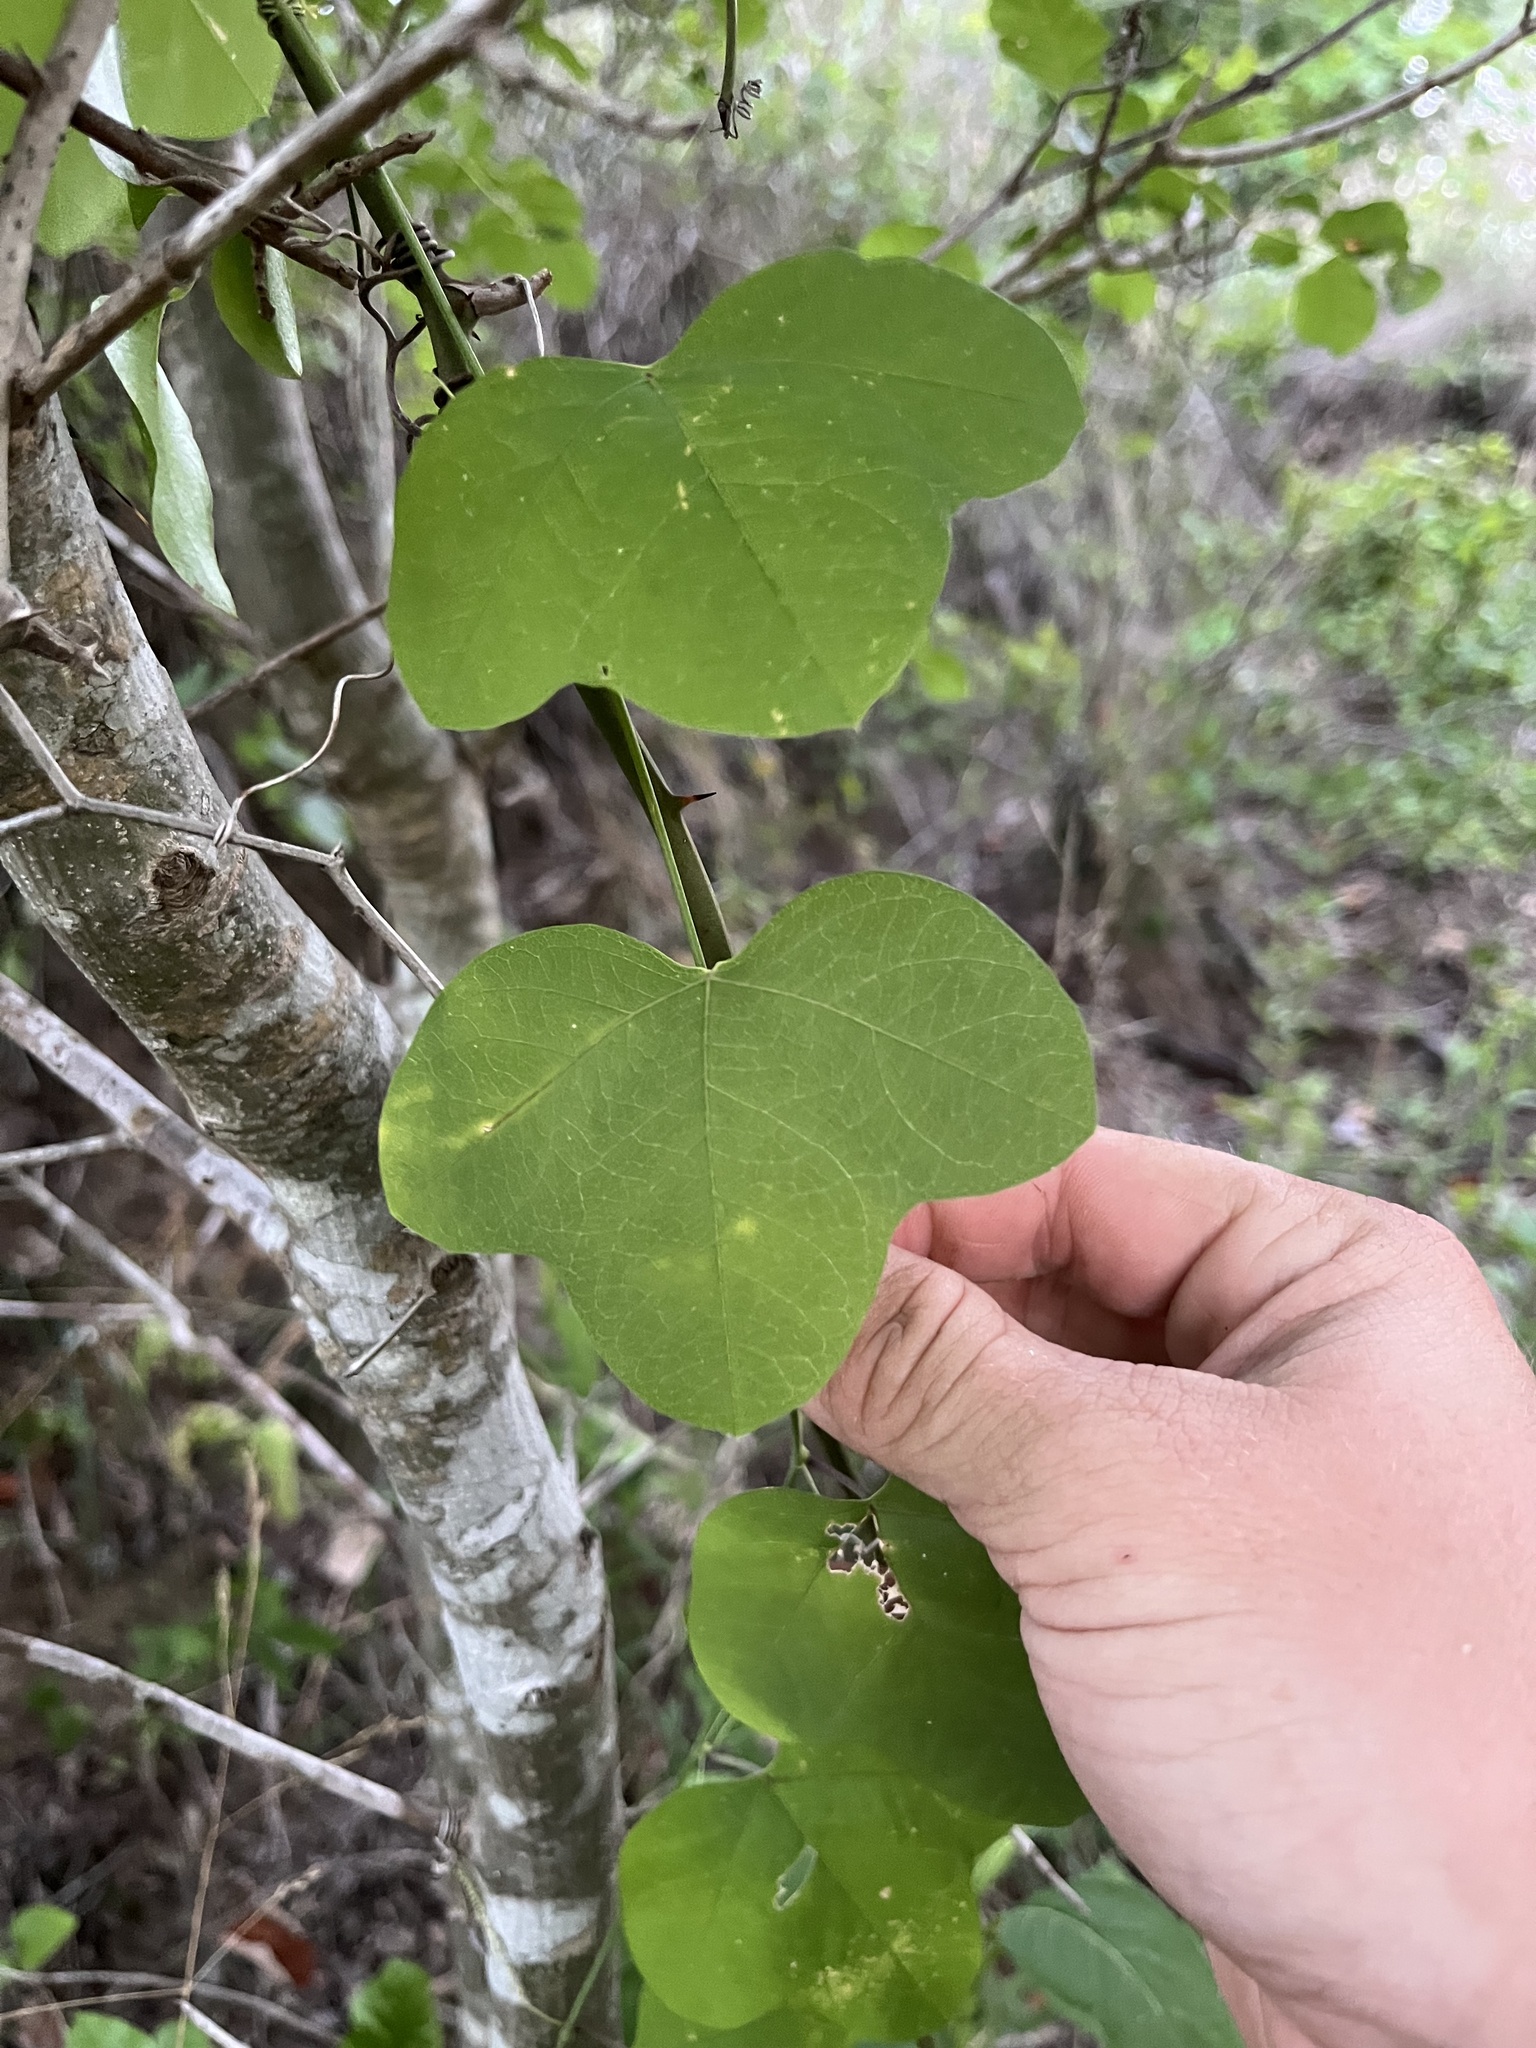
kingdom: Plantae
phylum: Tracheophyta
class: Magnoliopsida
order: Malpighiales
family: Passifloraceae
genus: Passiflora
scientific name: Passiflora lutea
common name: Yellow passionflower
